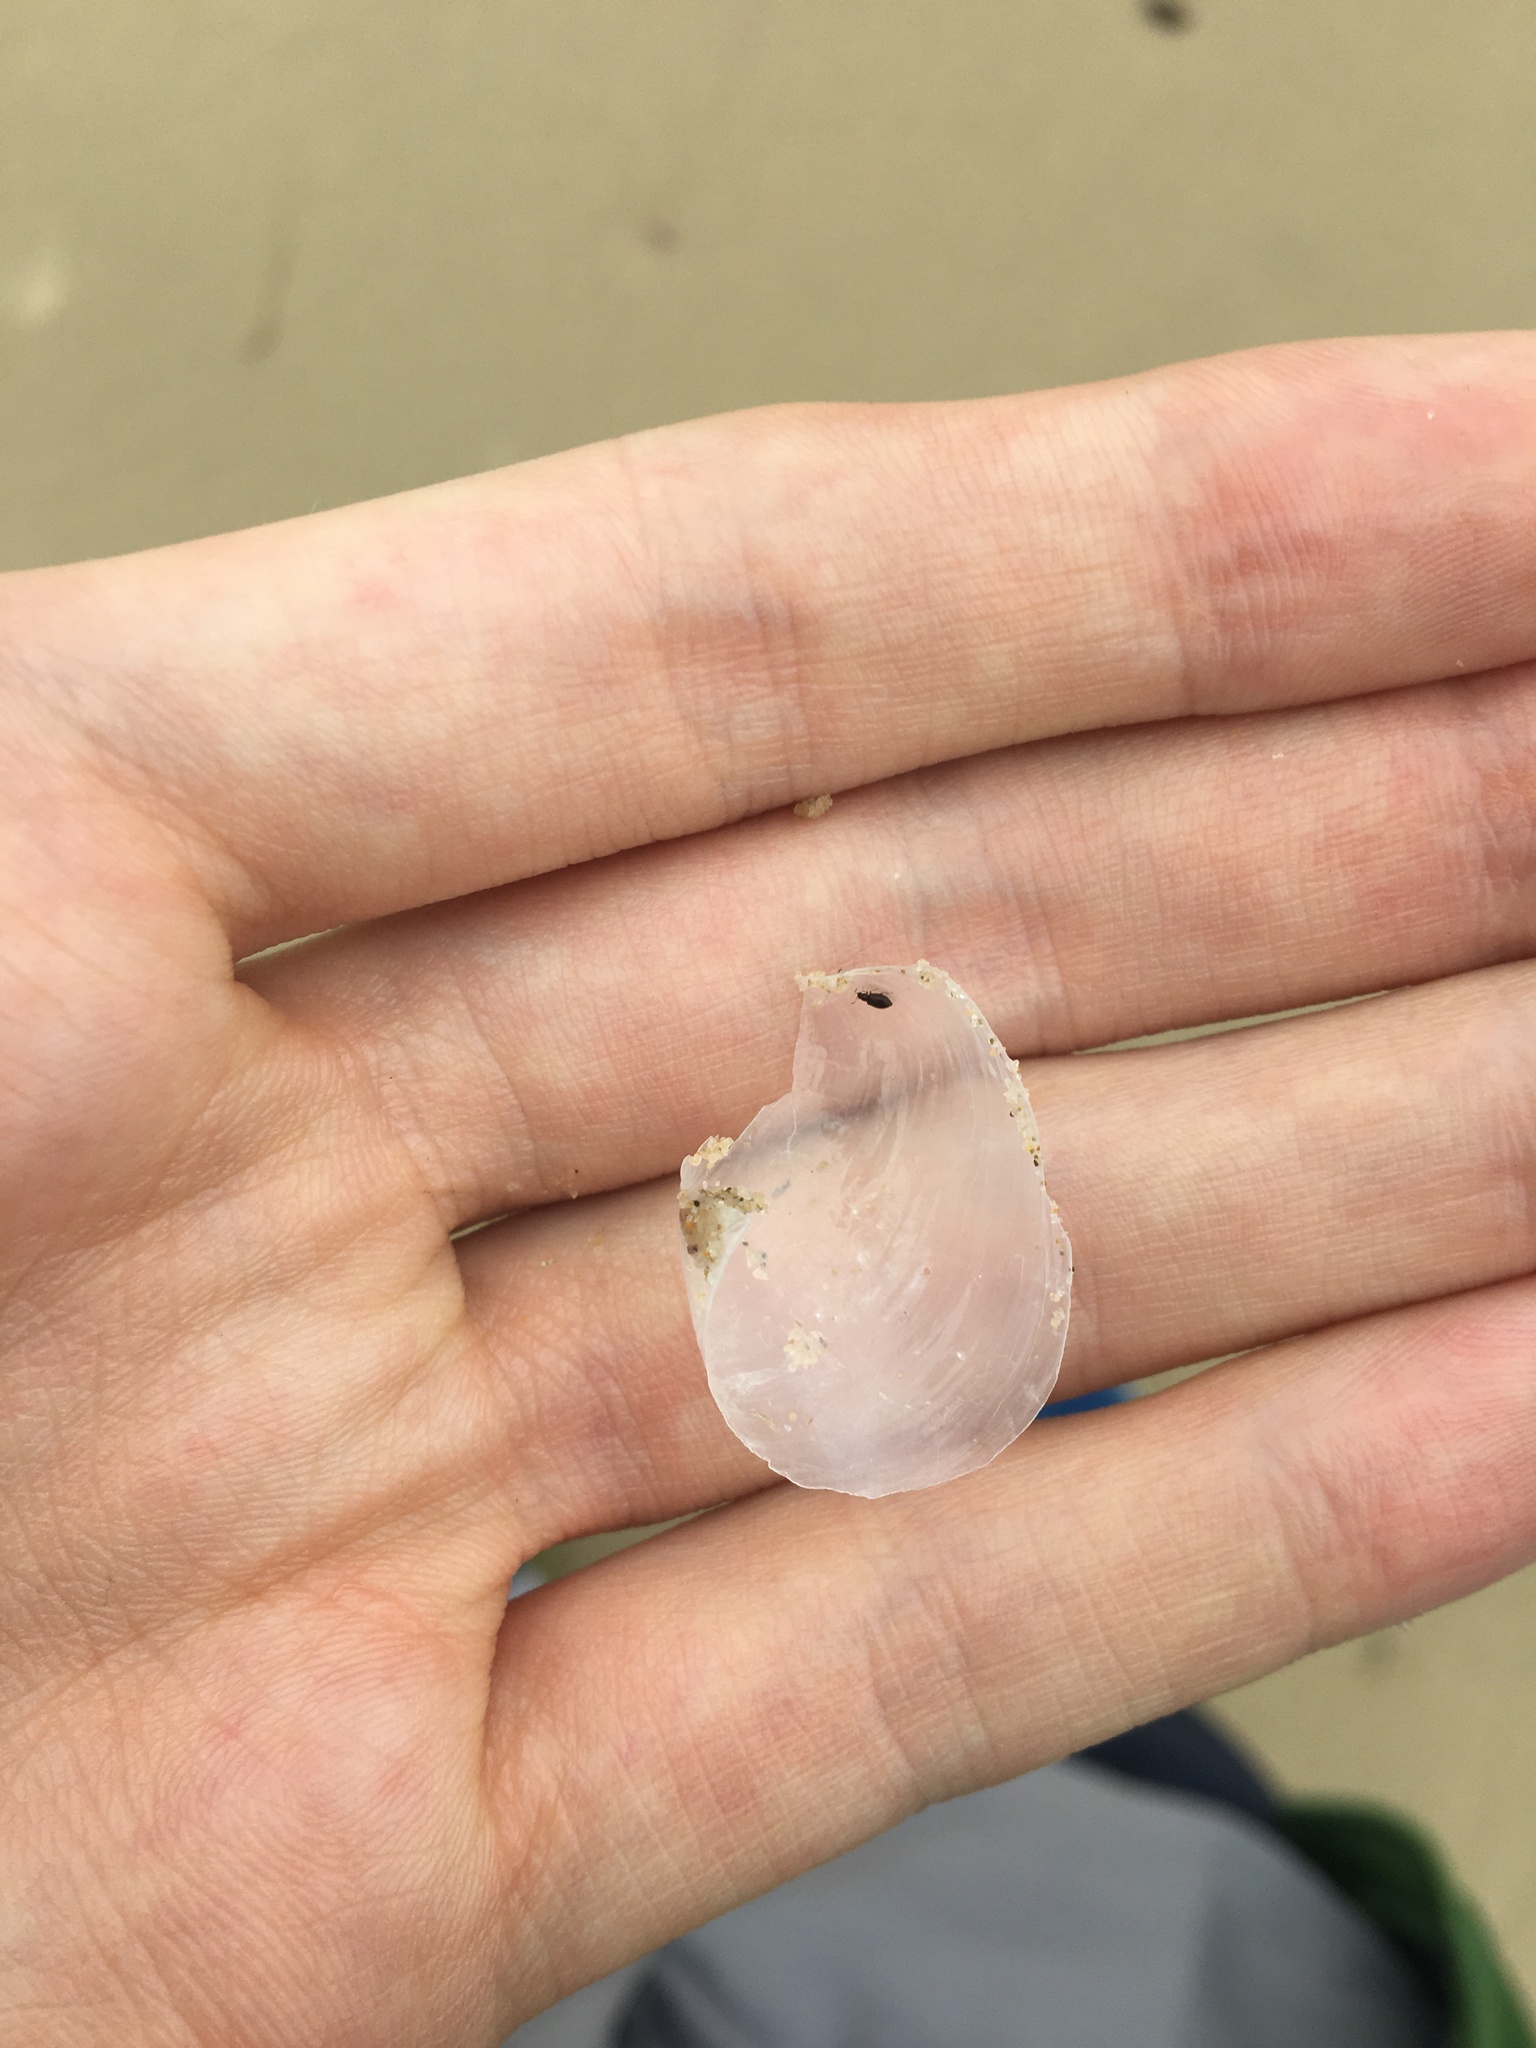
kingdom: Animalia
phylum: Mollusca
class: Gastropoda
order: Cephalaspidea
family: Philinidae
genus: Philine
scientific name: Philine angasi
